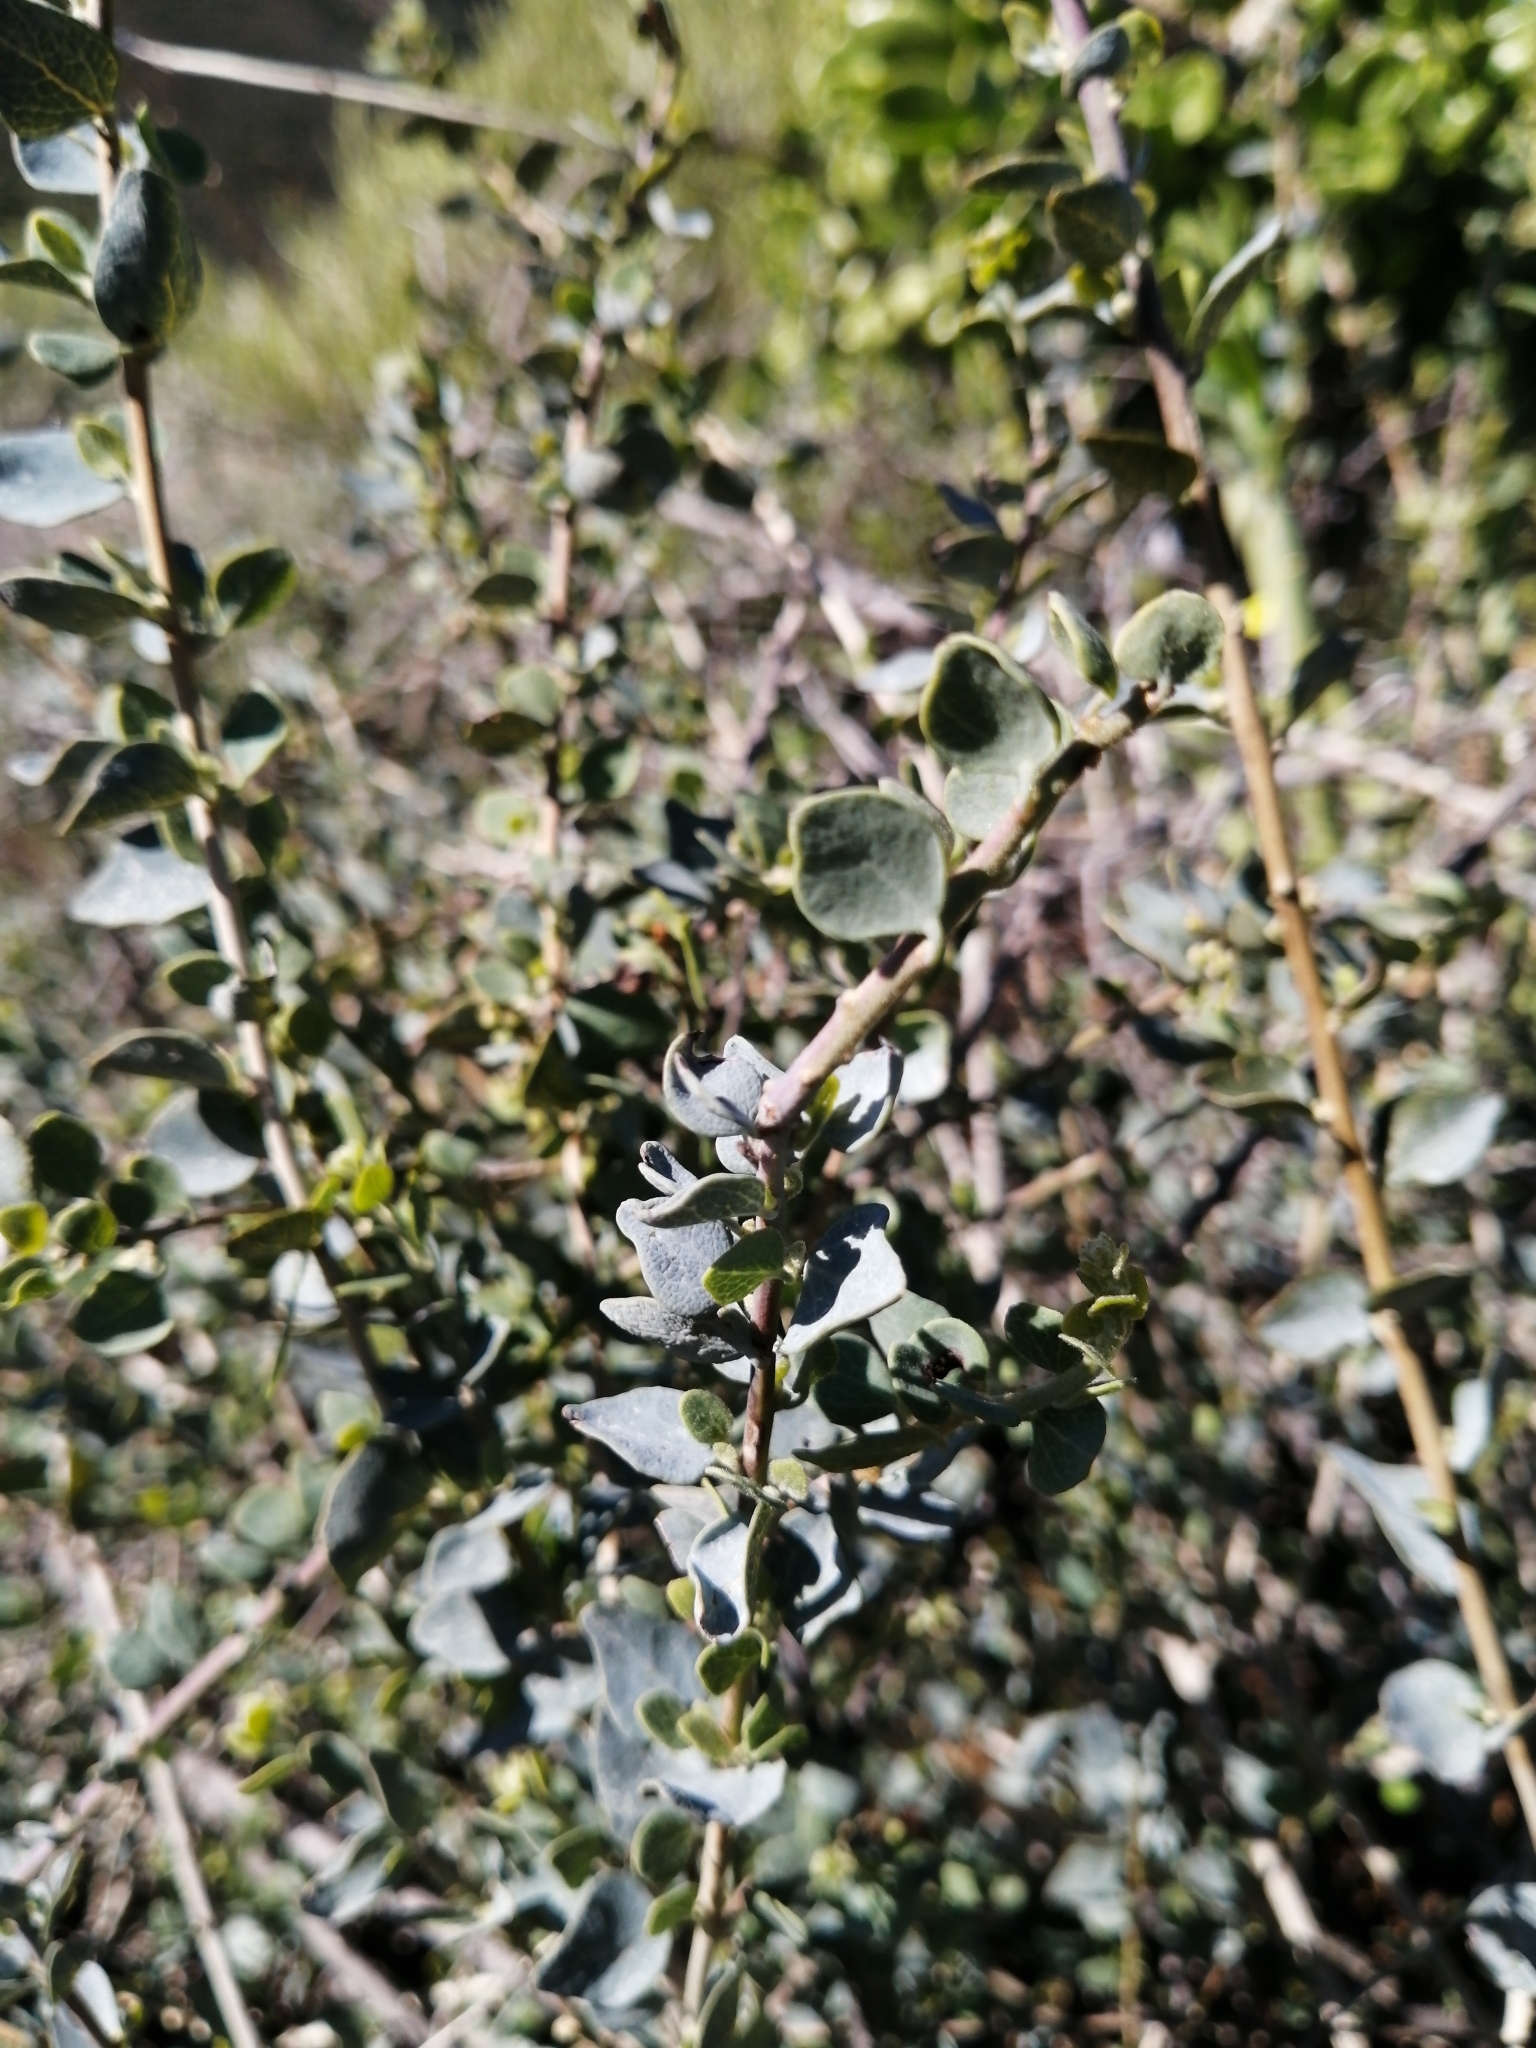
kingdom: Plantae
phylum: Tracheophyta
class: Magnoliopsida
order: Ranunculales
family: Menispermaceae
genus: Cissampelos
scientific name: Cissampelos capensis
